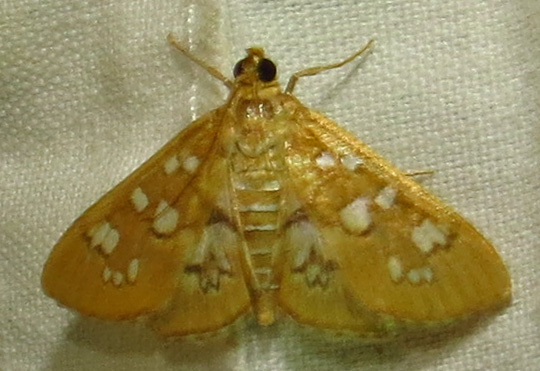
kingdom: Animalia
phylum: Arthropoda
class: Insecta
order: Lepidoptera
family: Crambidae
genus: Samea
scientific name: Samea baccatalis
